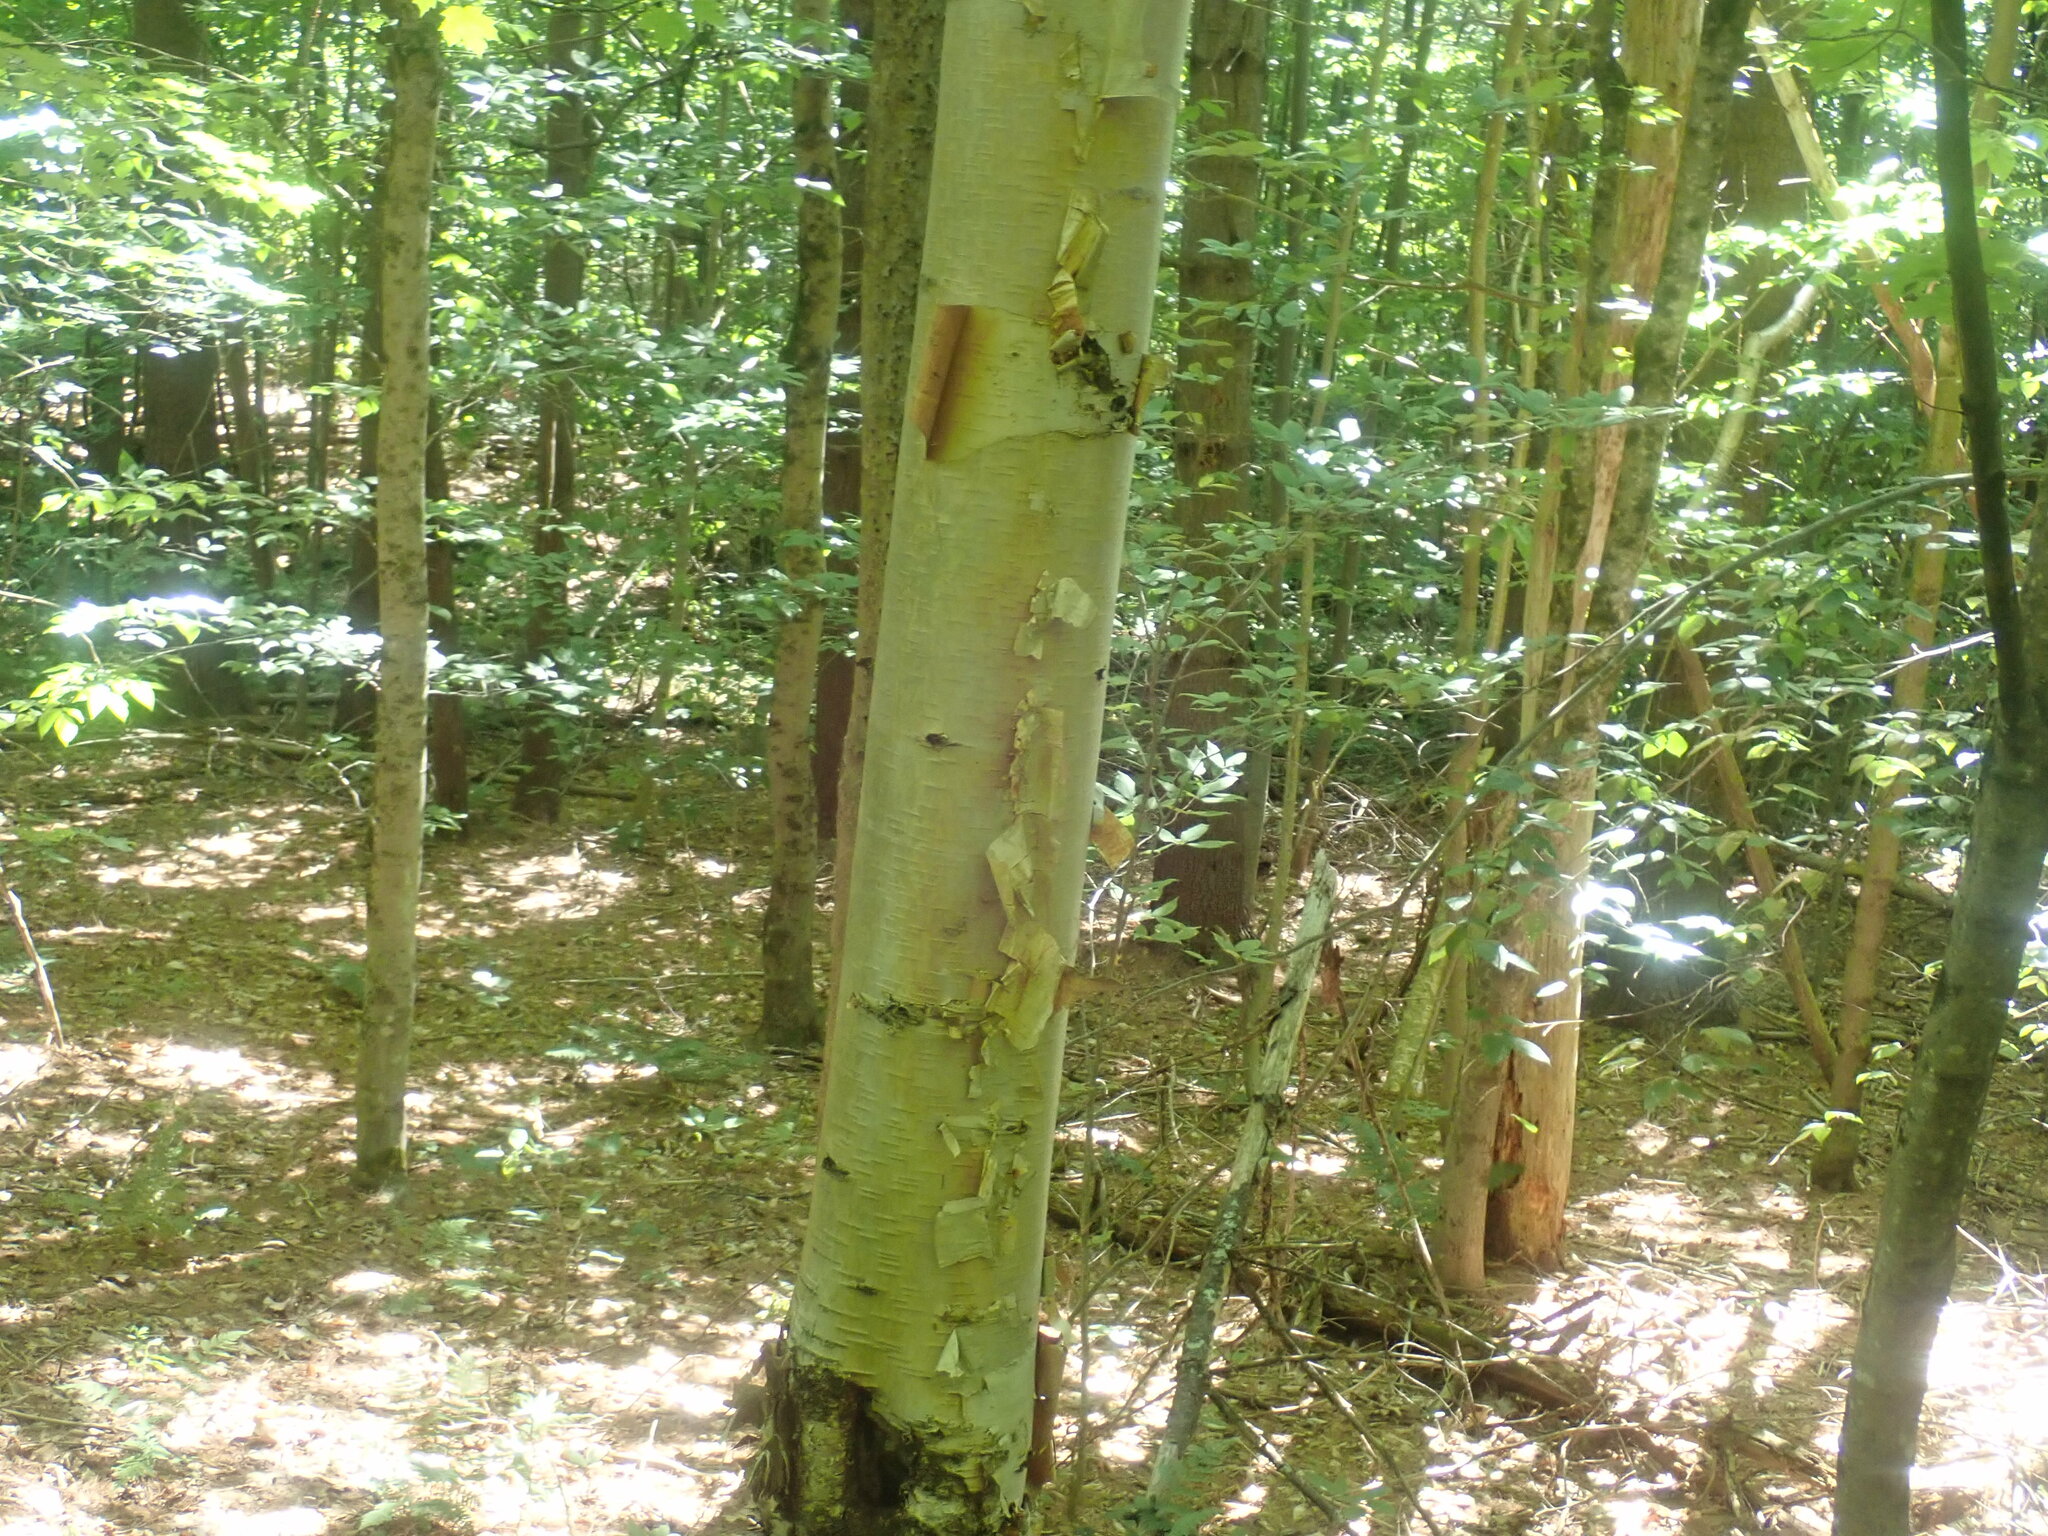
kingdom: Plantae
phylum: Tracheophyta
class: Magnoliopsida
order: Fagales
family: Betulaceae
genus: Betula
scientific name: Betula papyrifera
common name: Paper birch
